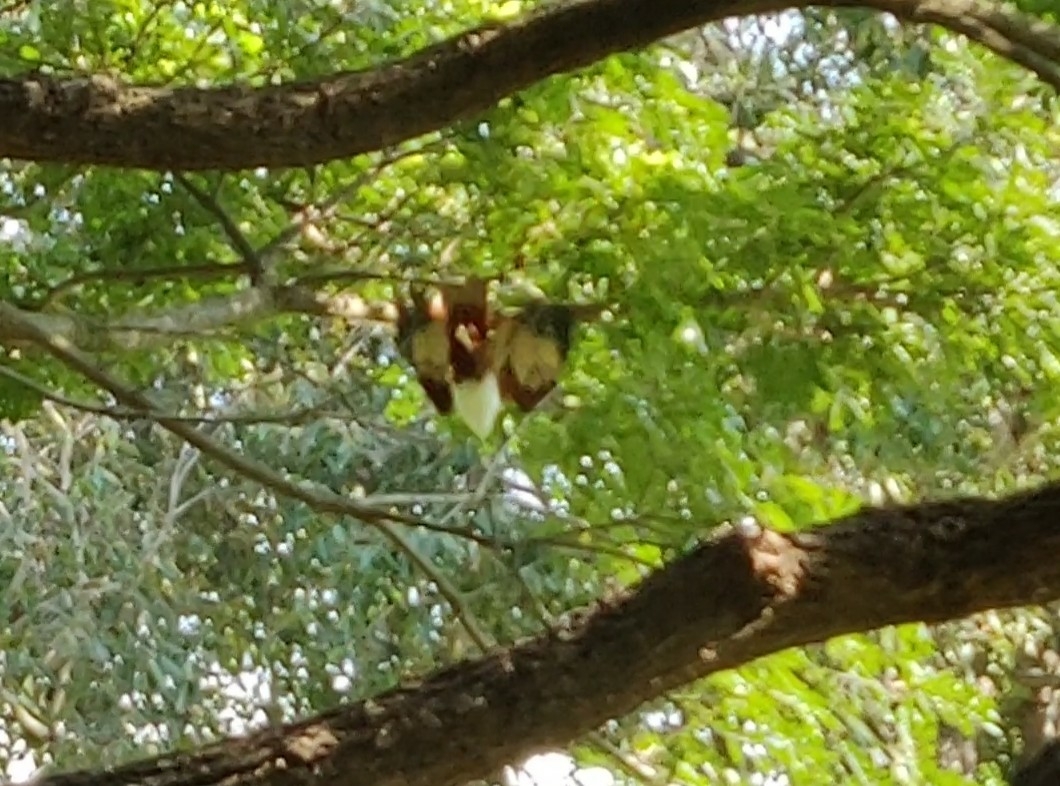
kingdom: Animalia
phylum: Chordata
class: Aves
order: Accipitriformes
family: Accipitridae
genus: Haliastur
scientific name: Haliastur indus
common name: Brahminy kite
